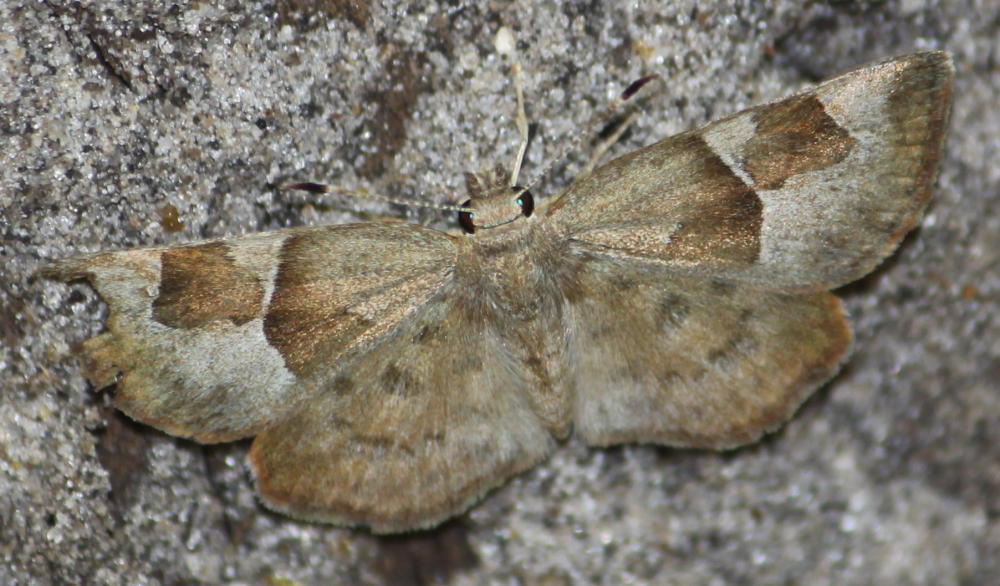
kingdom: Animalia
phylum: Arthropoda
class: Insecta
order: Lepidoptera
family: Hesperiidae
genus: Sarangesa
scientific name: Sarangesa phidyle
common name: Small elfin
